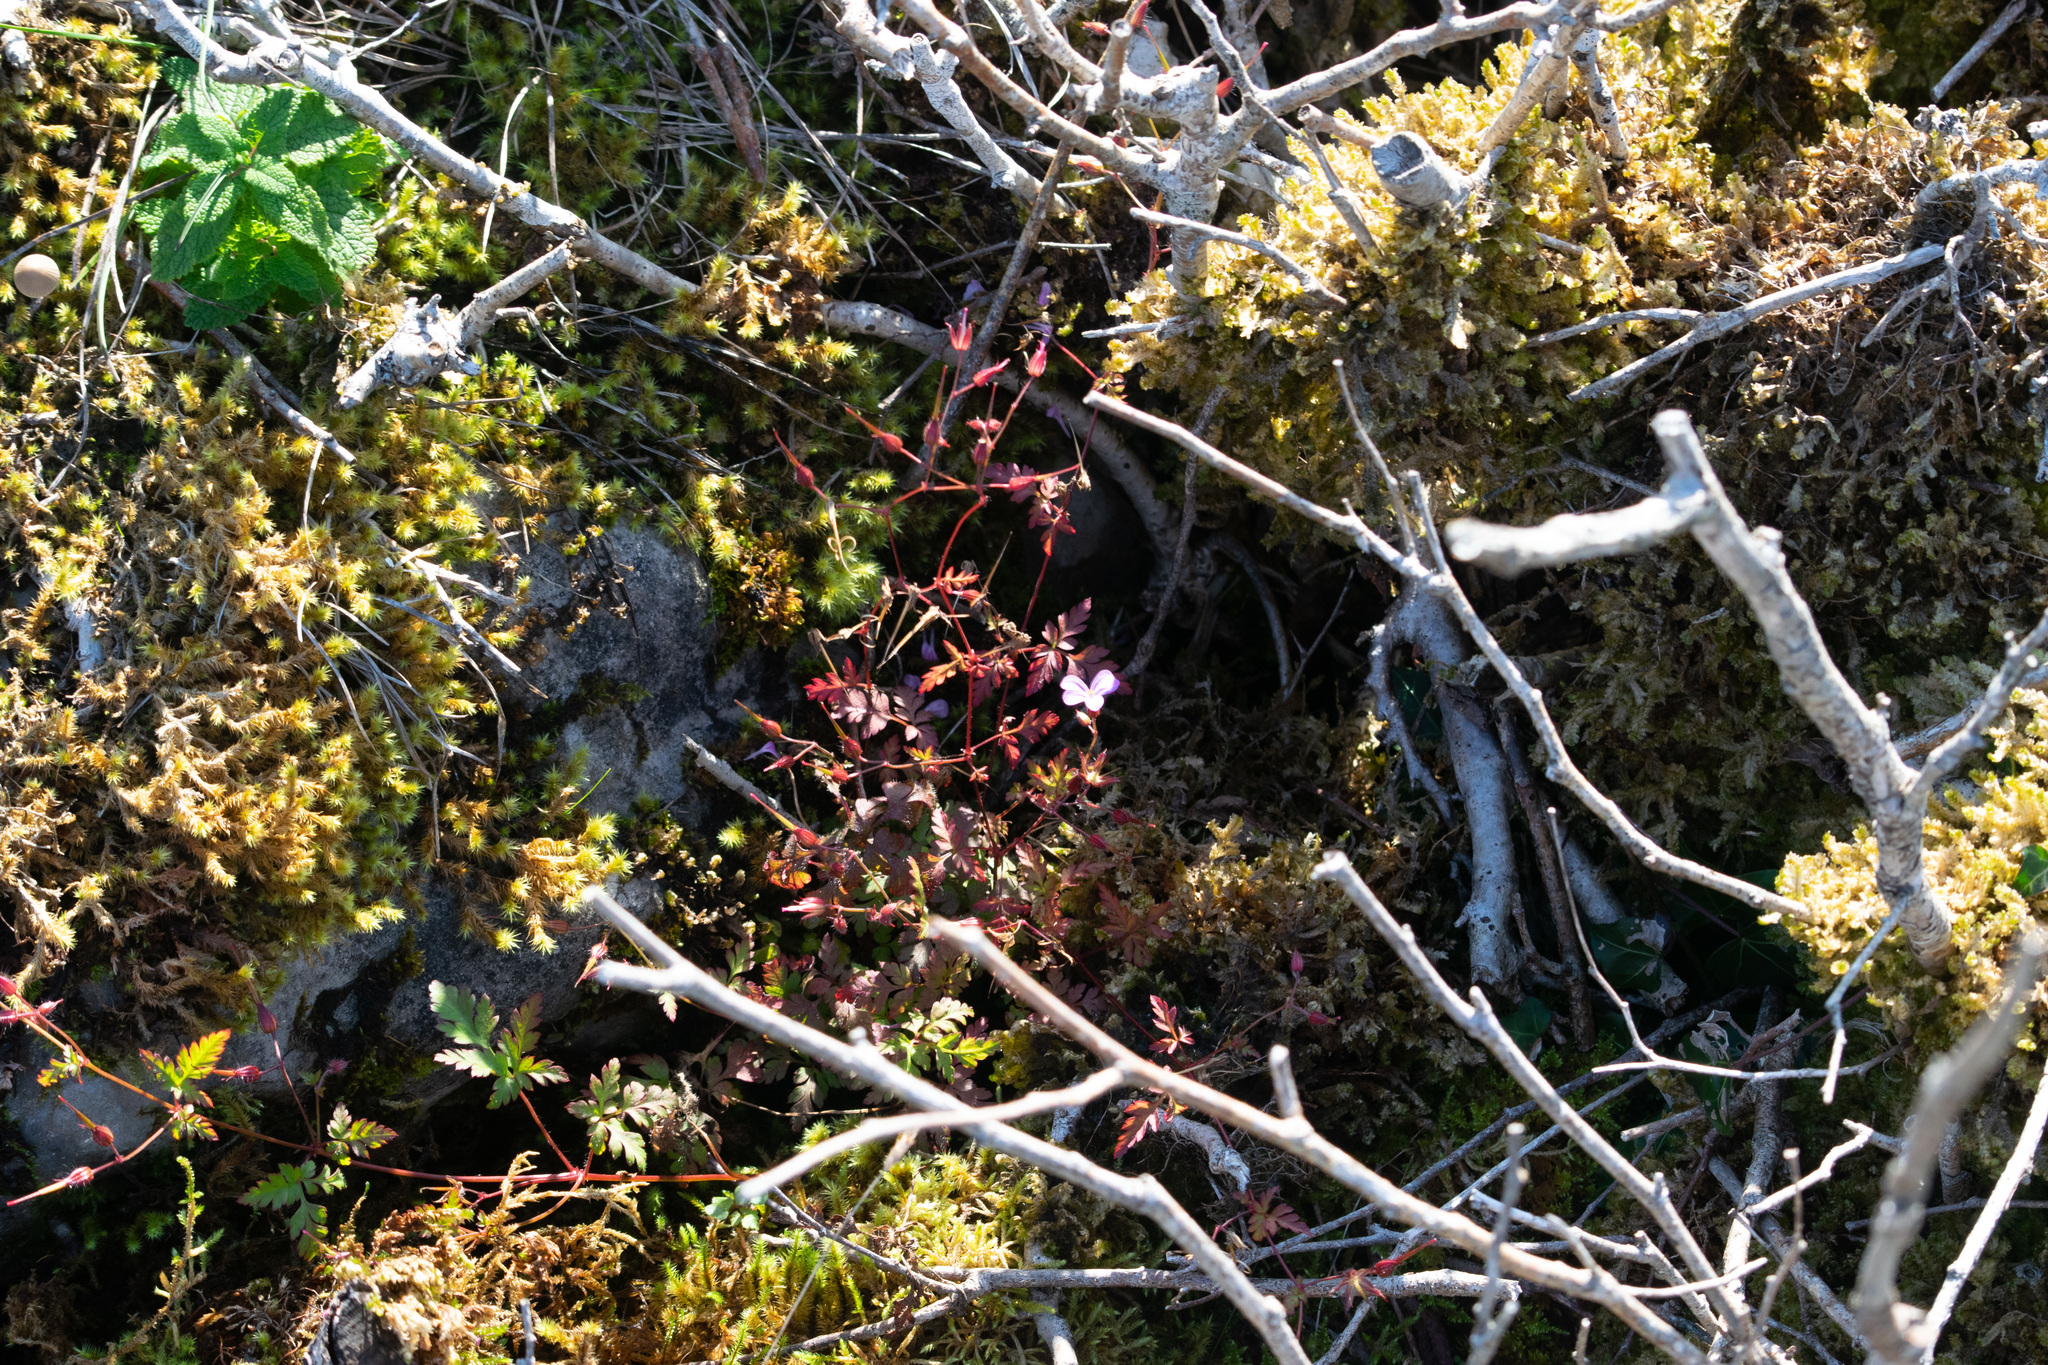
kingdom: Plantae
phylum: Tracheophyta
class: Magnoliopsida
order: Geraniales
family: Geraniaceae
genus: Geranium
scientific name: Geranium robertianum
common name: Herb-robert
